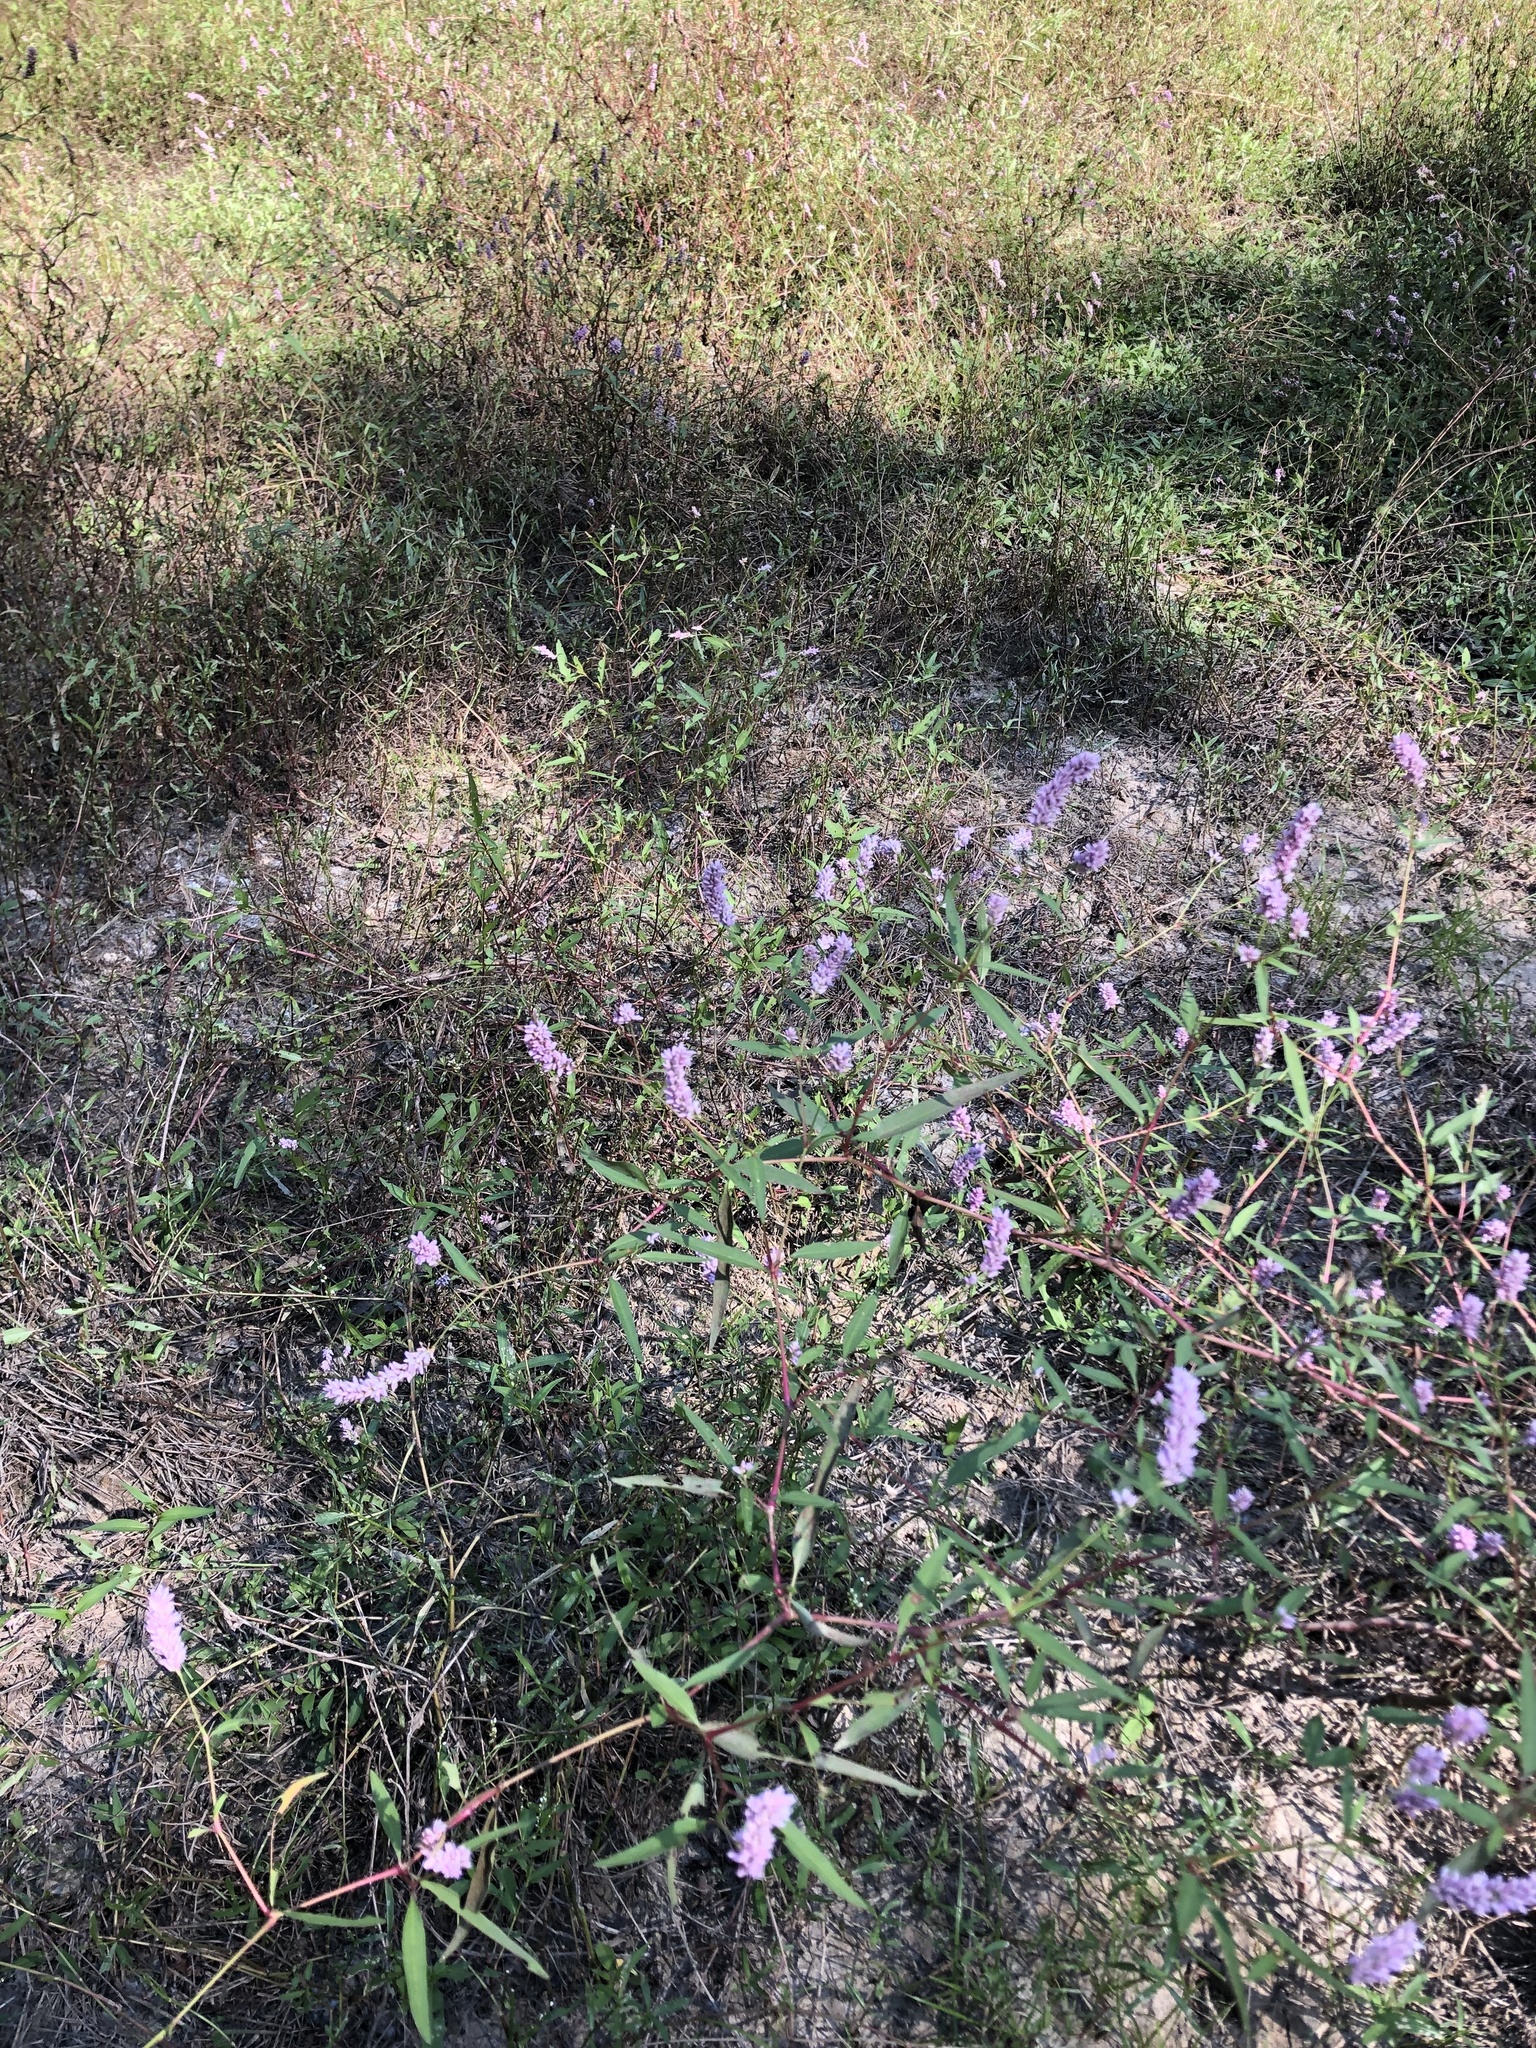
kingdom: Plantae
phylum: Tracheophyta
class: Magnoliopsida
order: Caryophyllales
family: Polygonaceae
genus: Persicaria
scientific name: Persicaria bicornis
